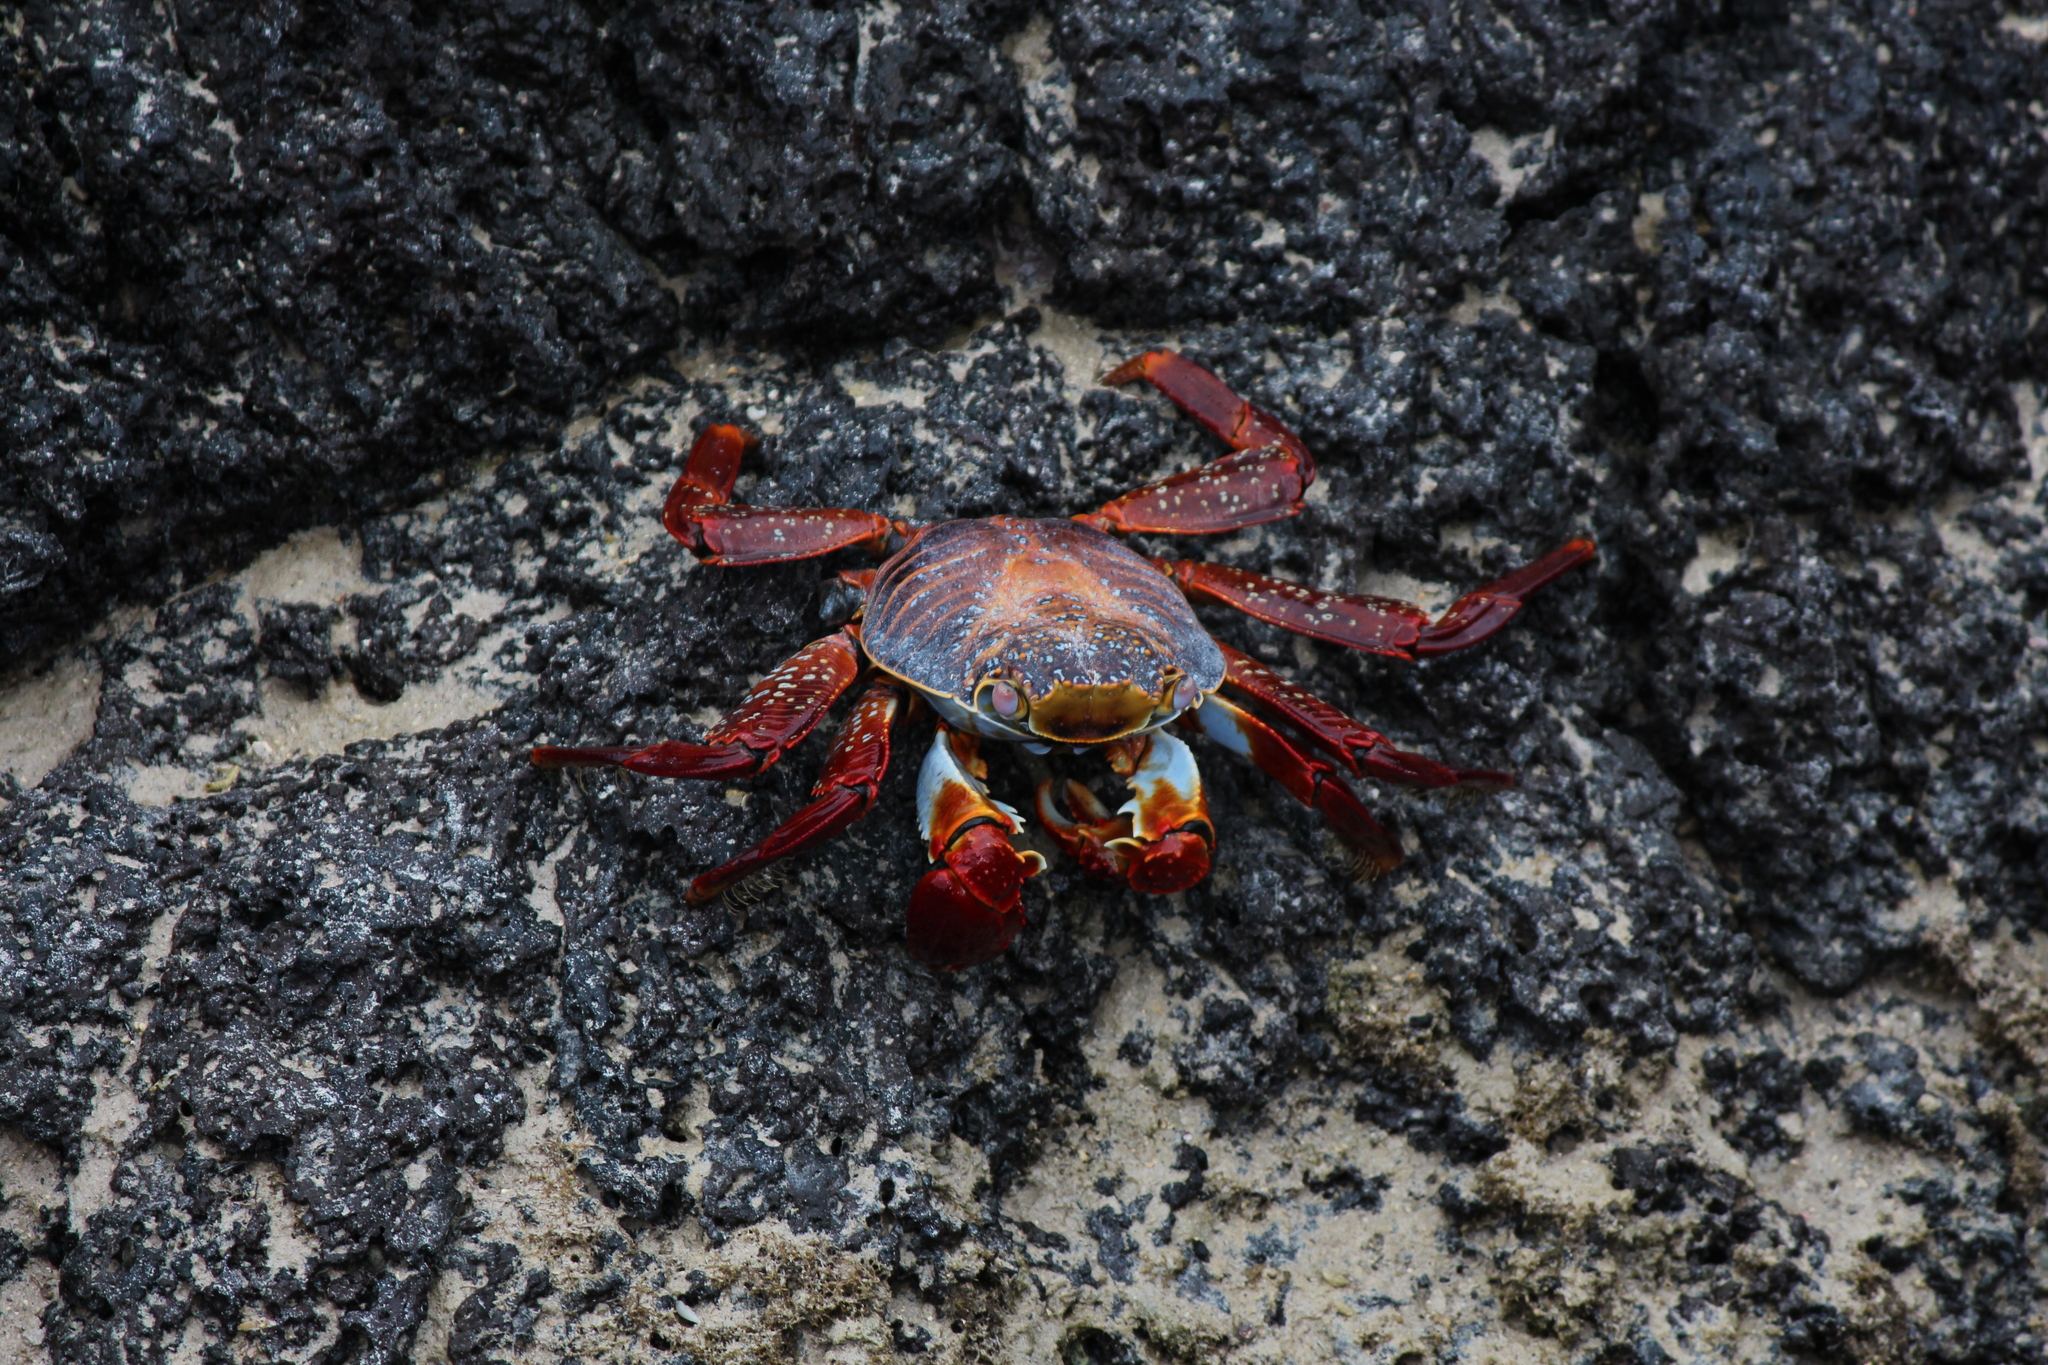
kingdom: Animalia
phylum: Arthropoda
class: Malacostraca
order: Decapoda
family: Grapsidae
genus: Grapsus
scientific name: Grapsus grapsus
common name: Sally lightfoot
